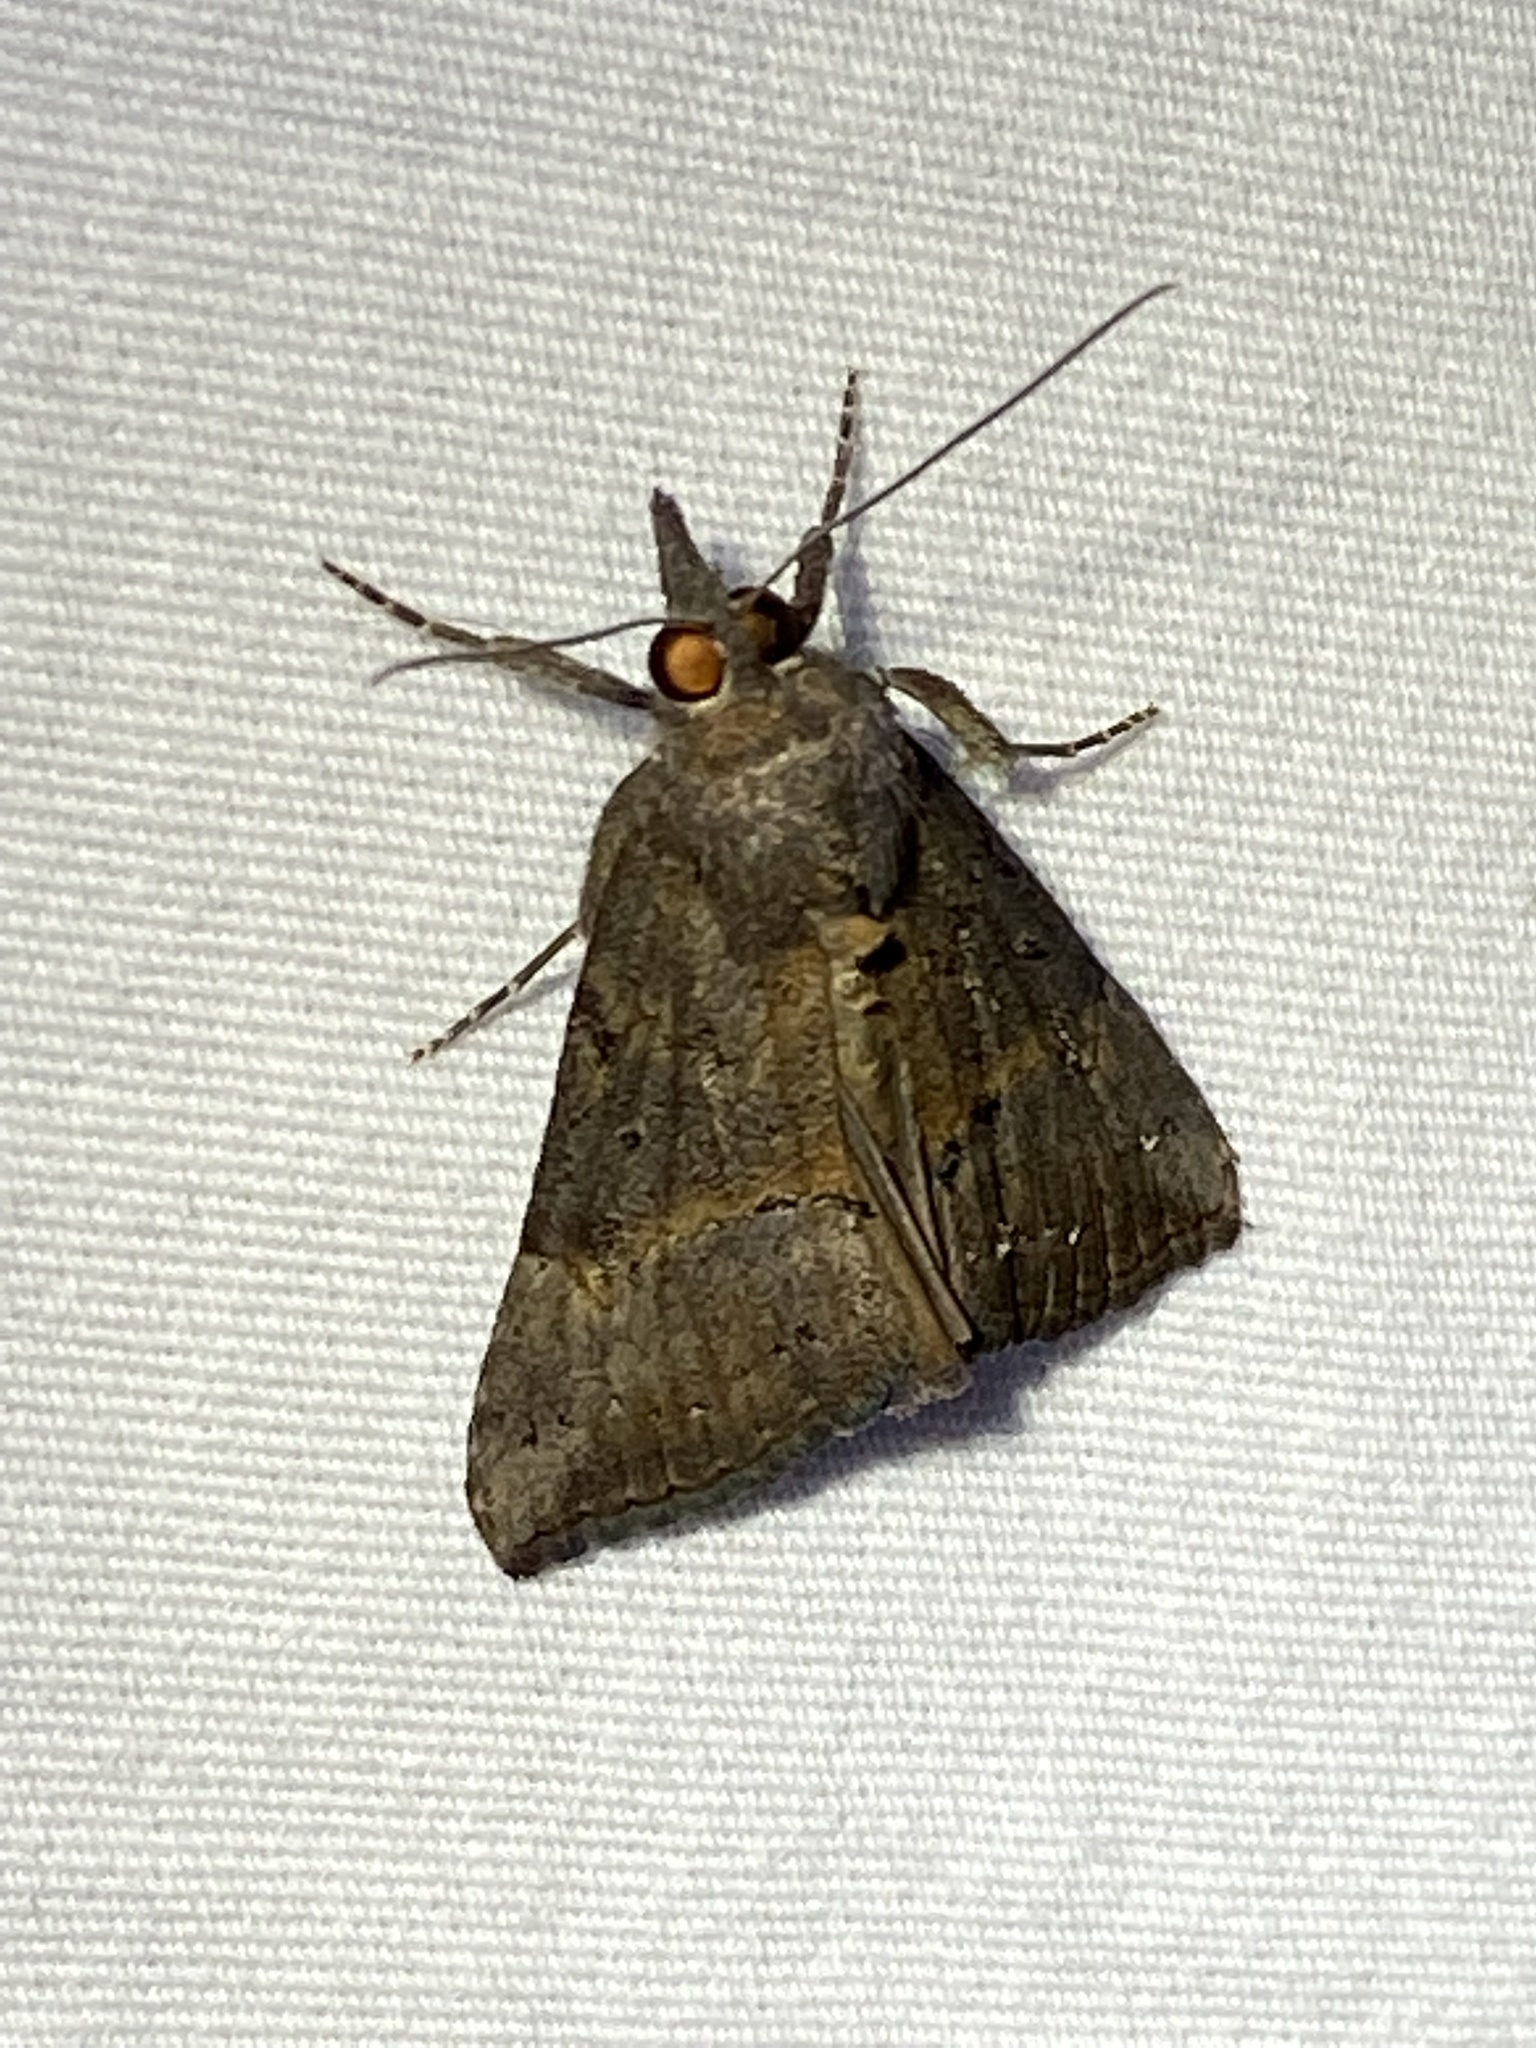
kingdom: Animalia
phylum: Arthropoda
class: Insecta
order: Lepidoptera
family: Erebidae
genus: Hypena
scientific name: Hypena scabra
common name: Green cloverworm
